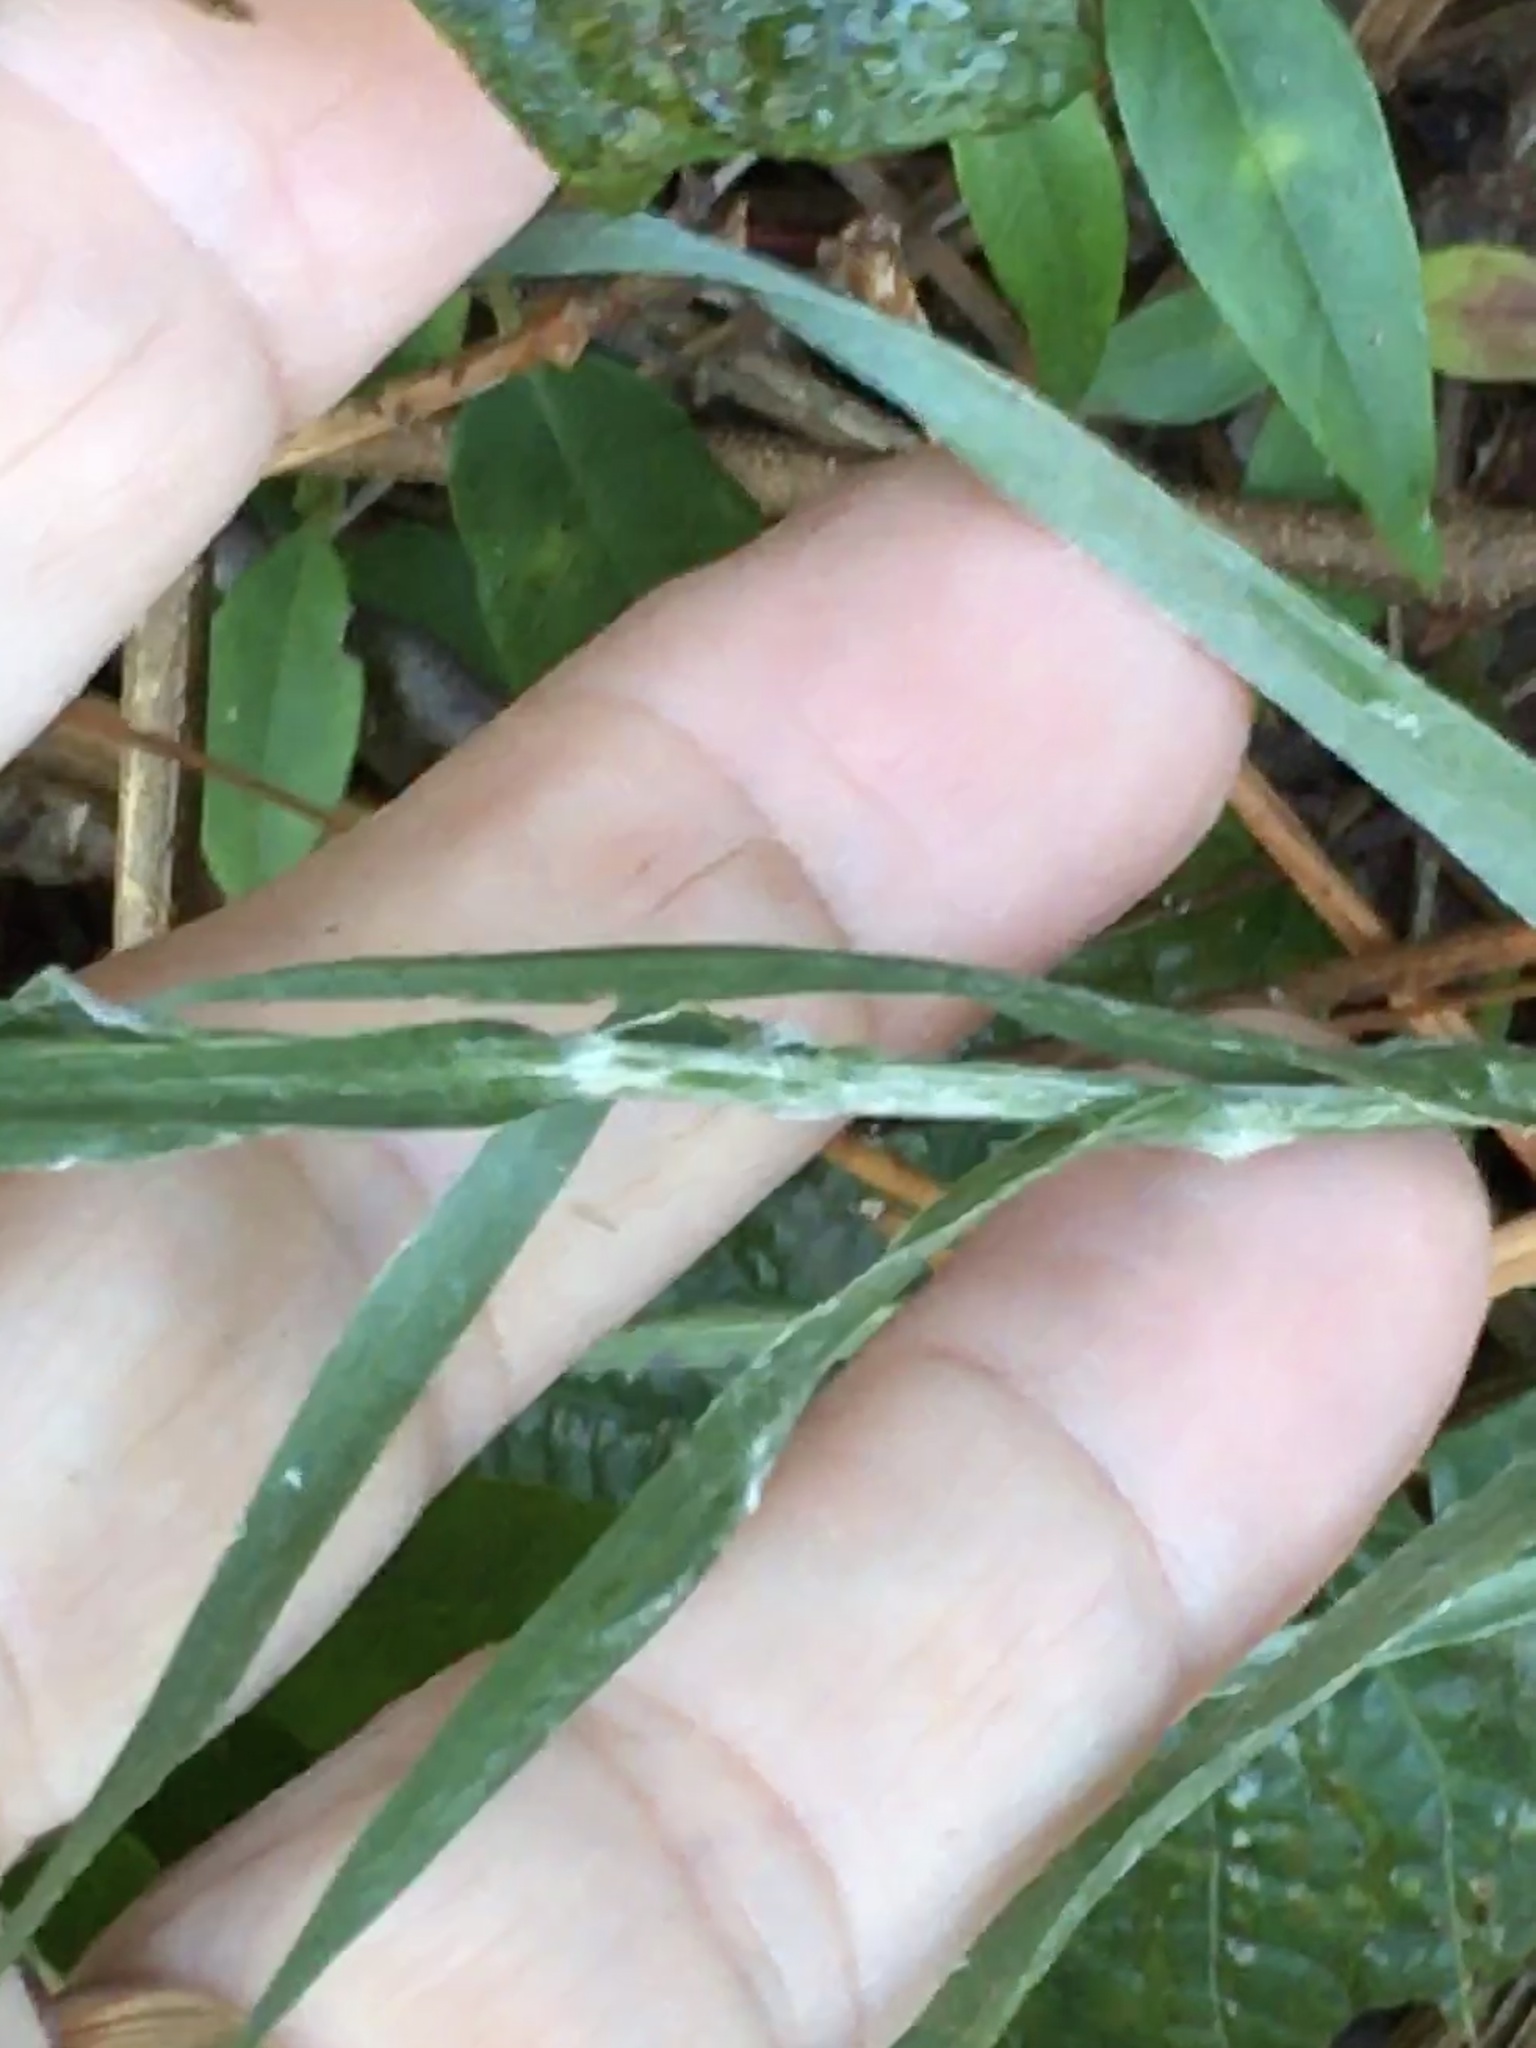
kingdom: Plantae
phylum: Tracheophyta
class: Magnoliopsida
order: Asterales
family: Asteraceae
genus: Pityopsis
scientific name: Pityopsis aspera
